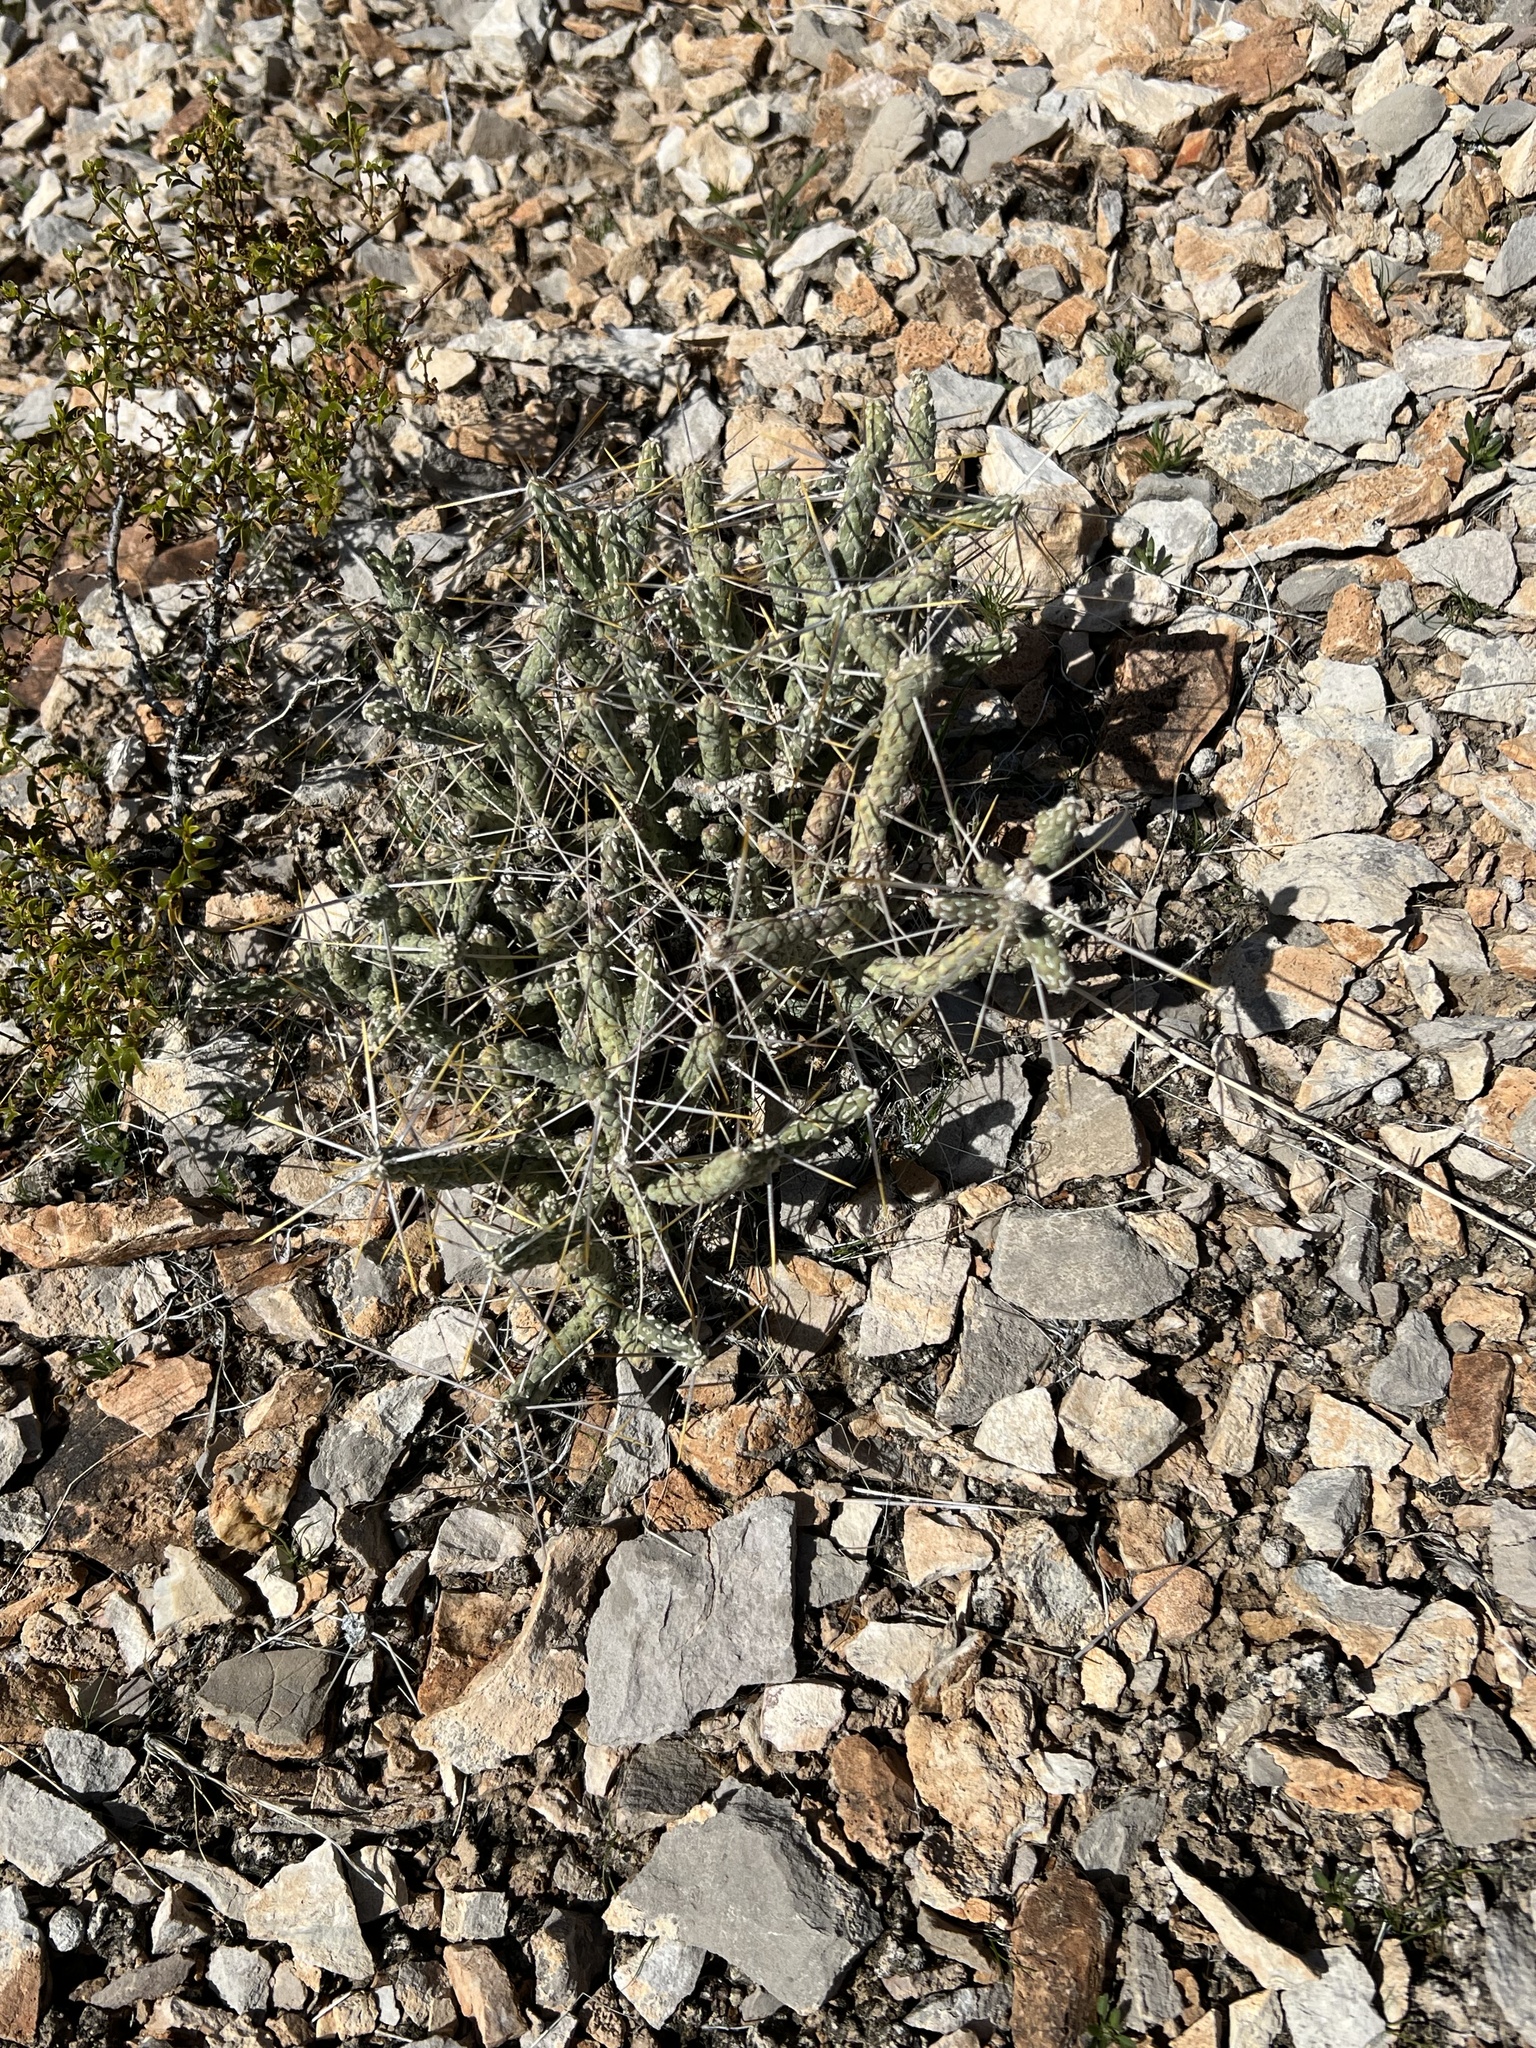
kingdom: Plantae
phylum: Tracheophyta
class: Magnoliopsida
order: Caryophyllales
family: Cactaceae
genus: Cylindropuntia
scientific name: Cylindropuntia ramosissima
